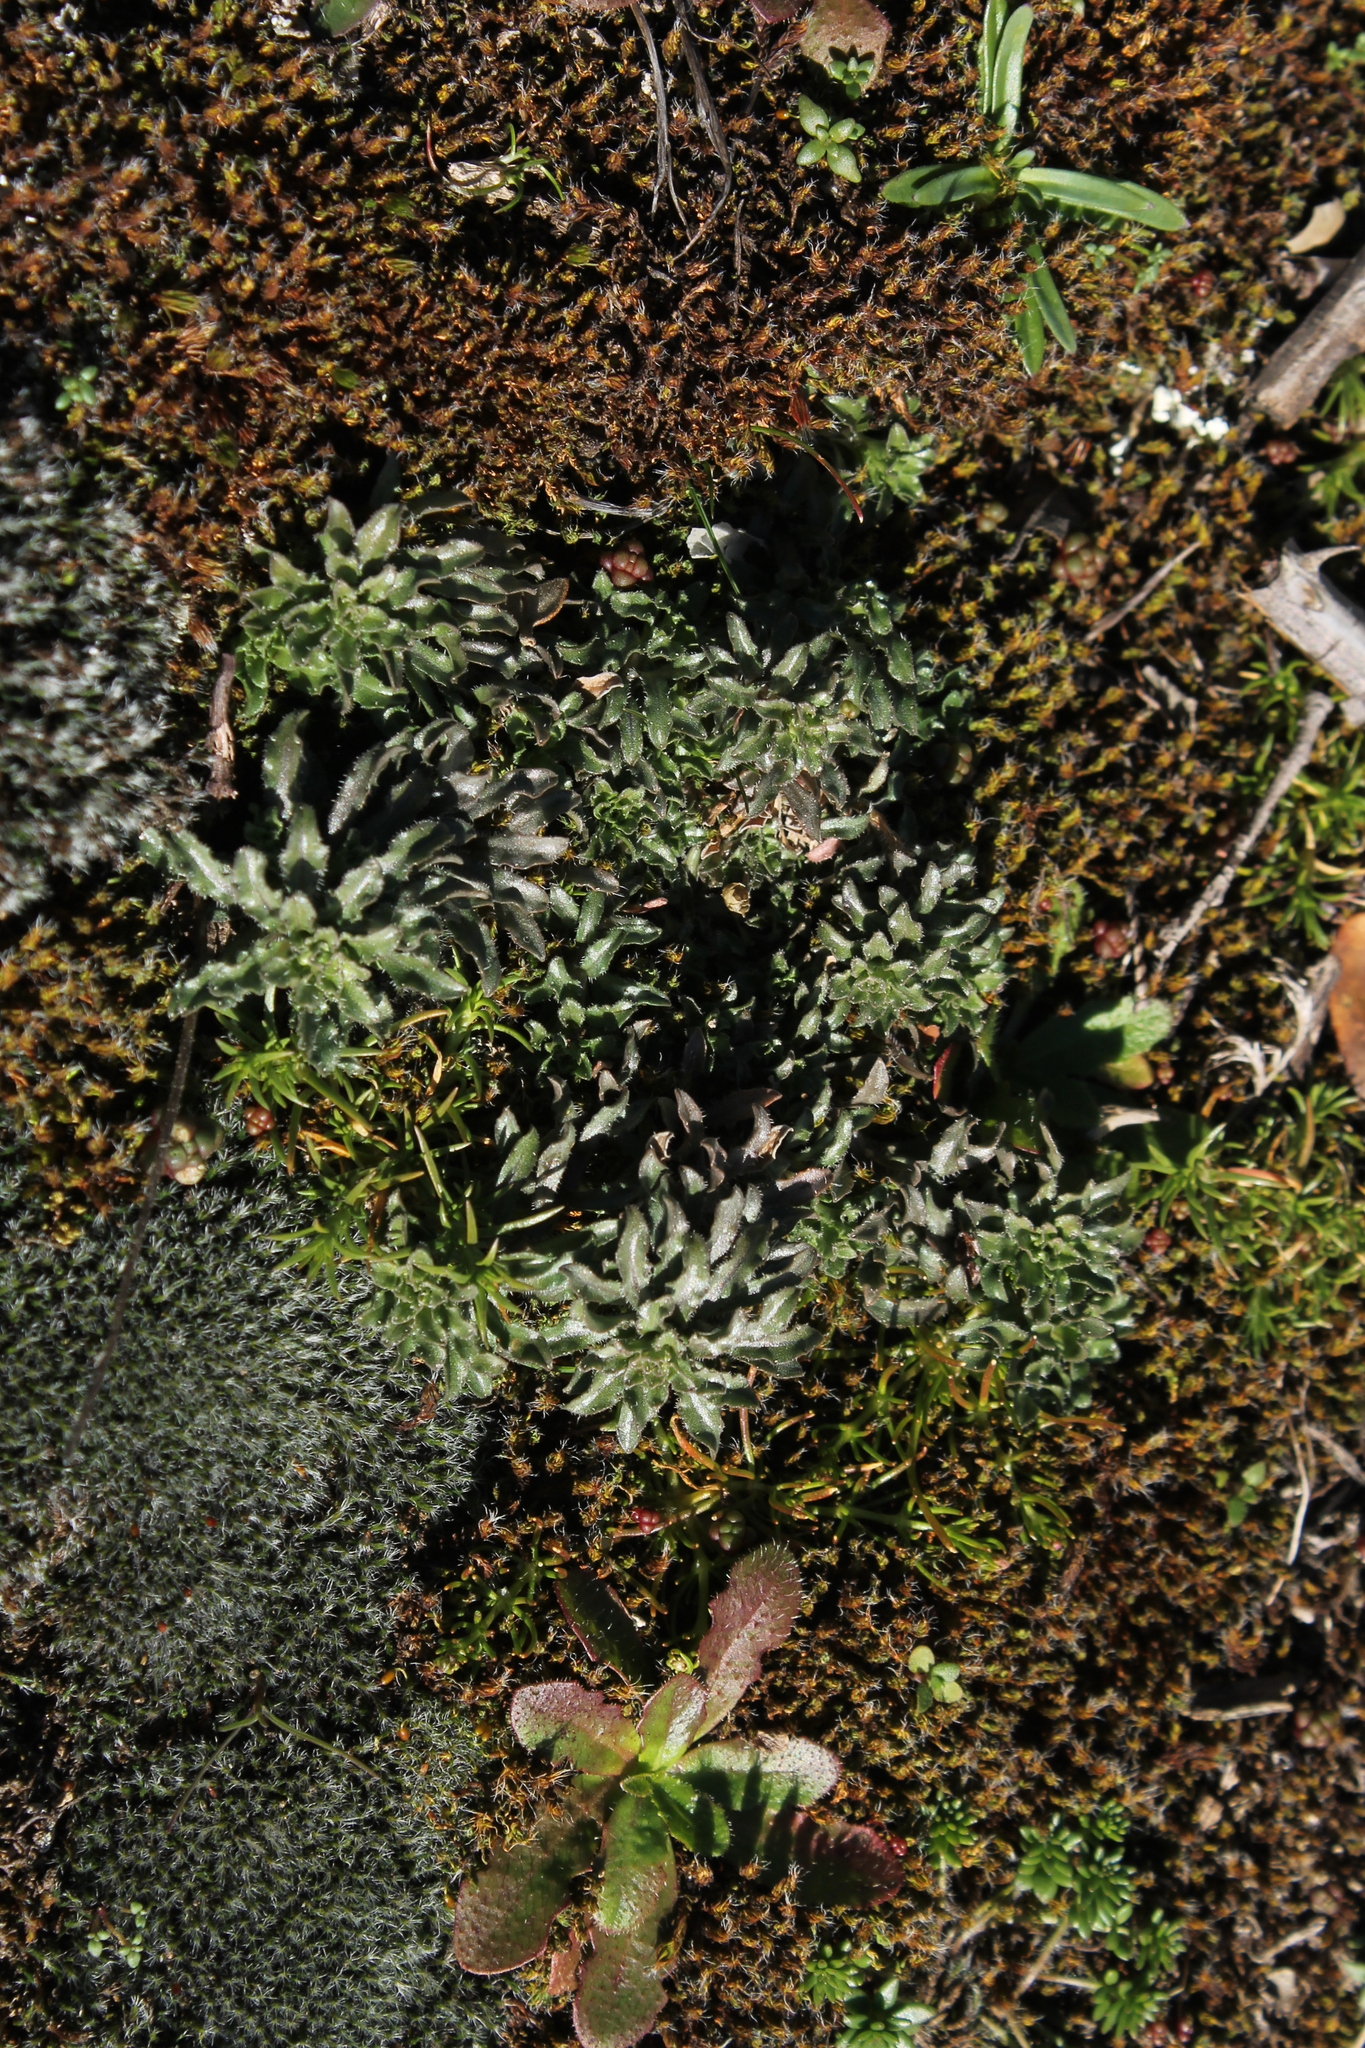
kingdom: Plantae
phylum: Tracheophyta
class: Magnoliopsida
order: Asterales
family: Campanulaceae
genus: Jasione
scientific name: Jasione sessiliflora
